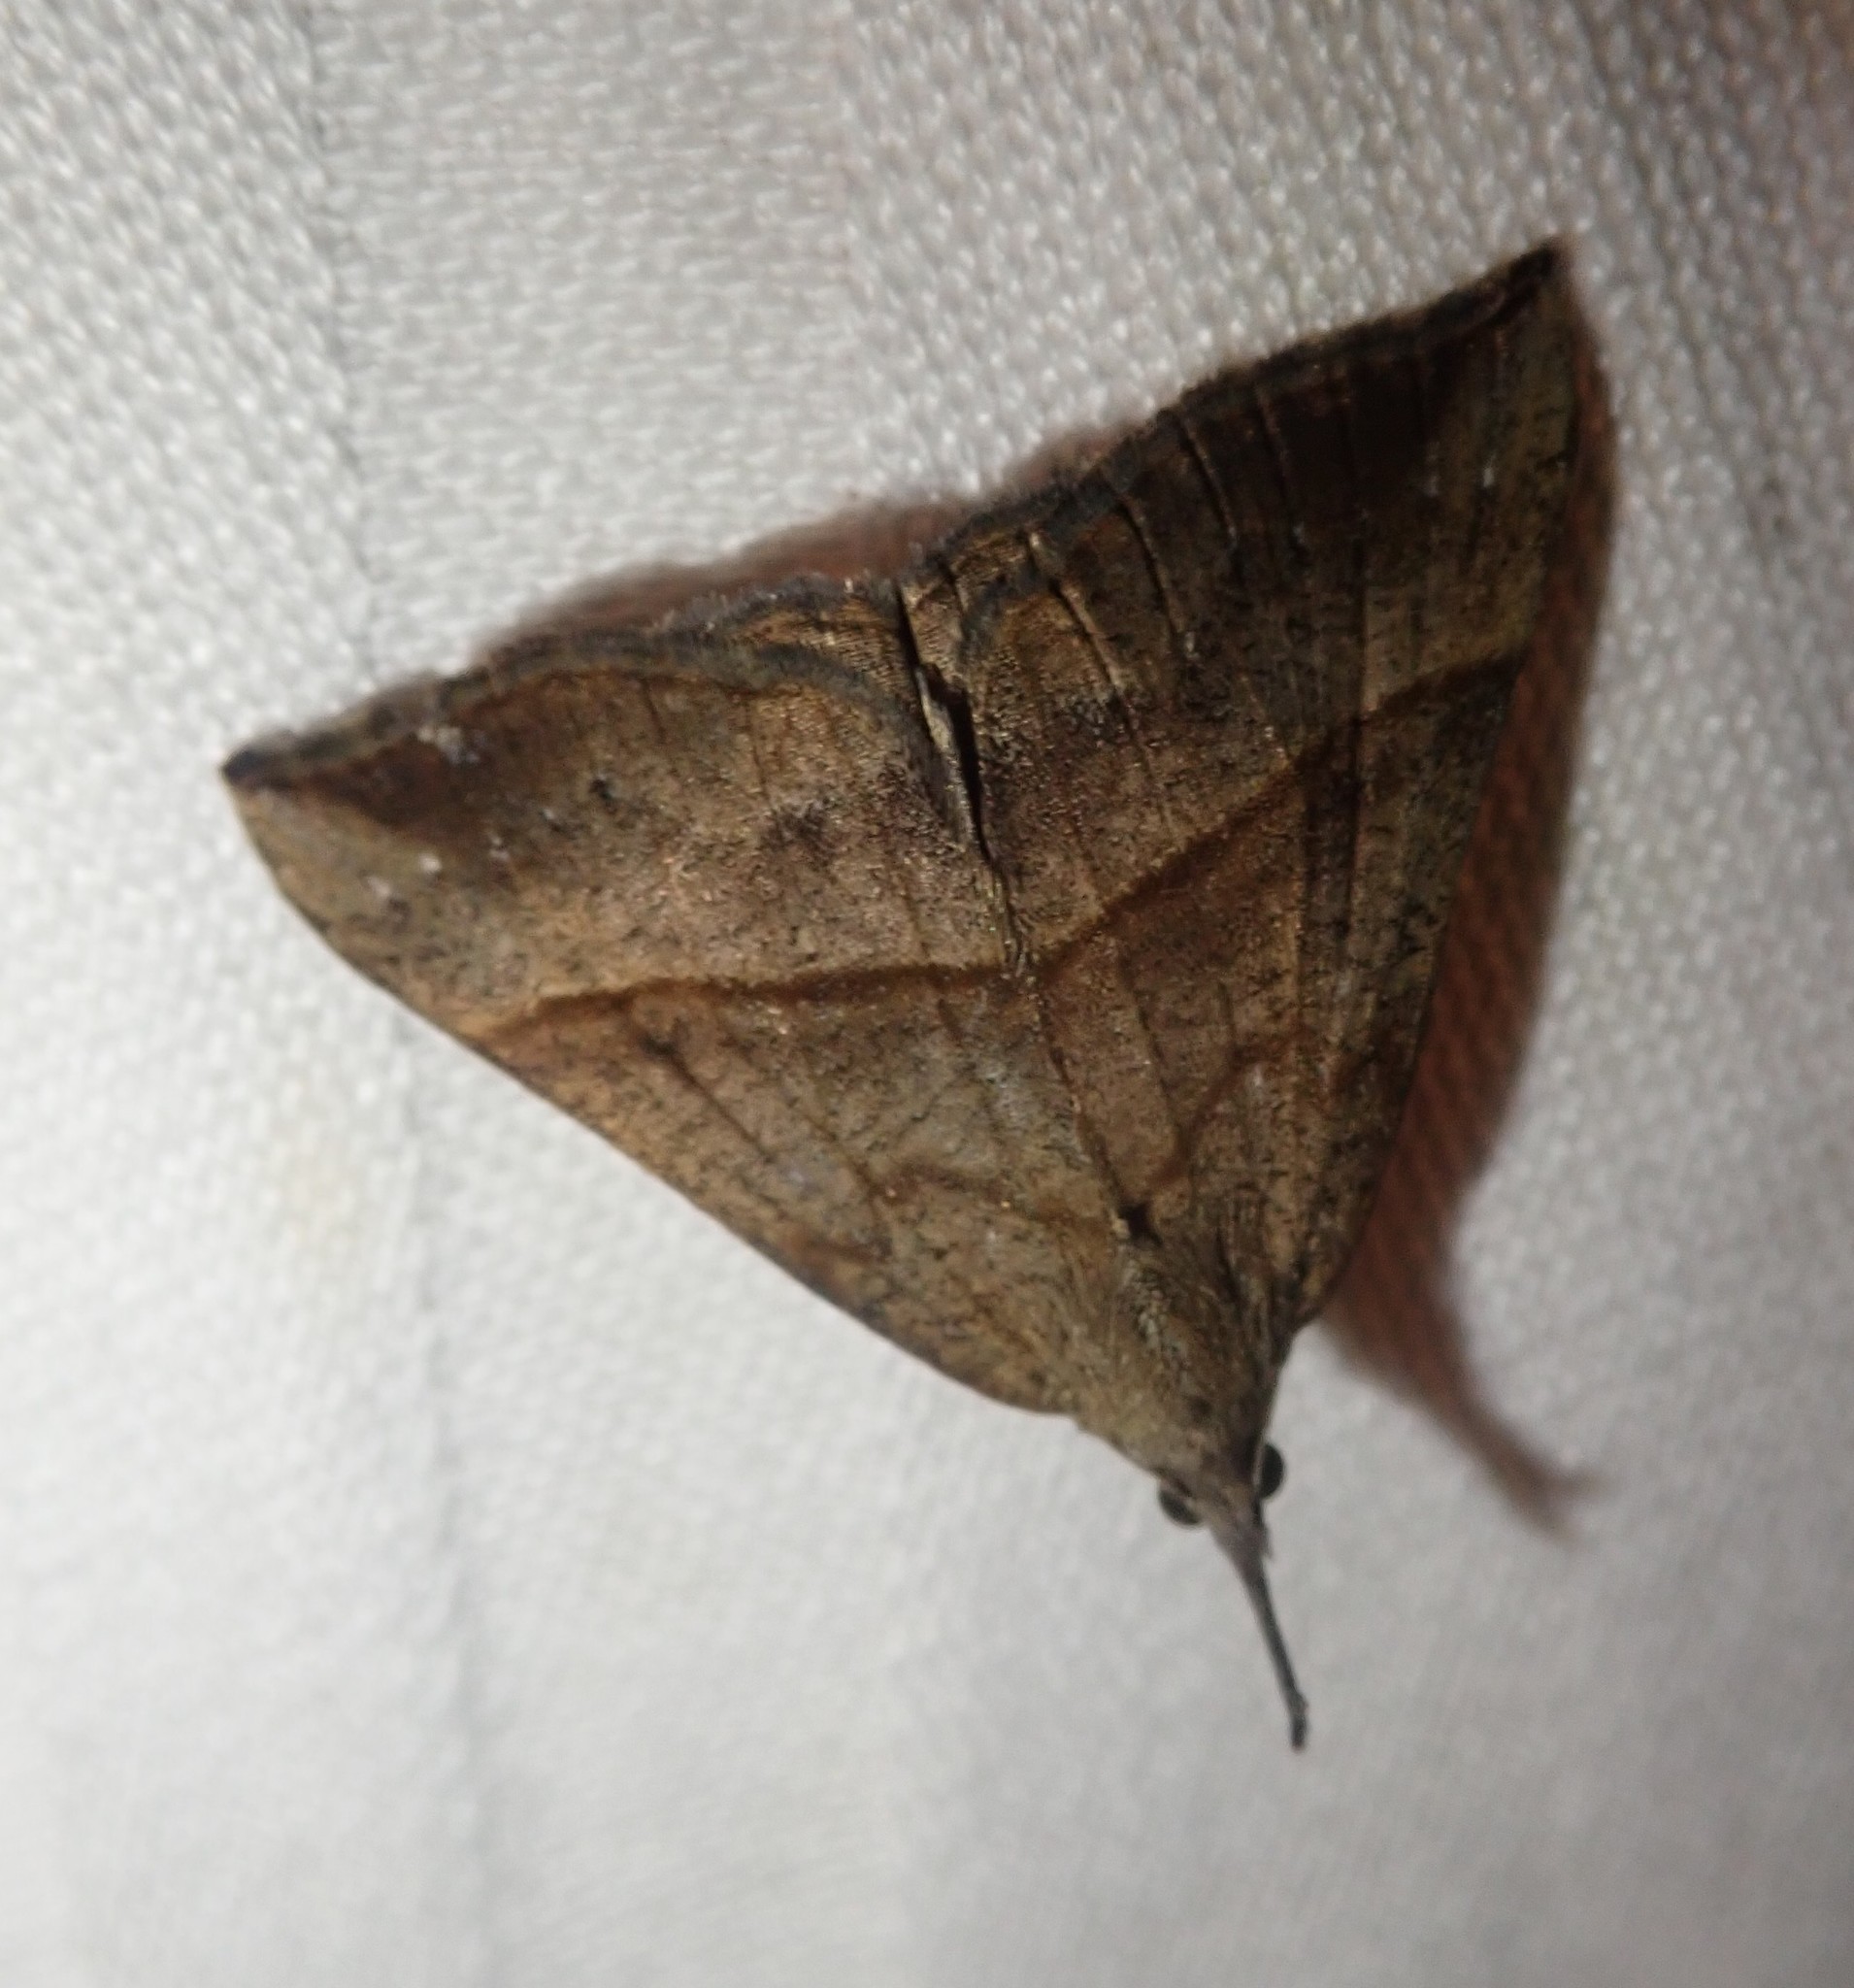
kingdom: Animalia
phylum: Arthropoda
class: Insecta
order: Lepidoptera
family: Erebidae
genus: Hypena
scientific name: Hypena proboscidalis
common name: Snout
